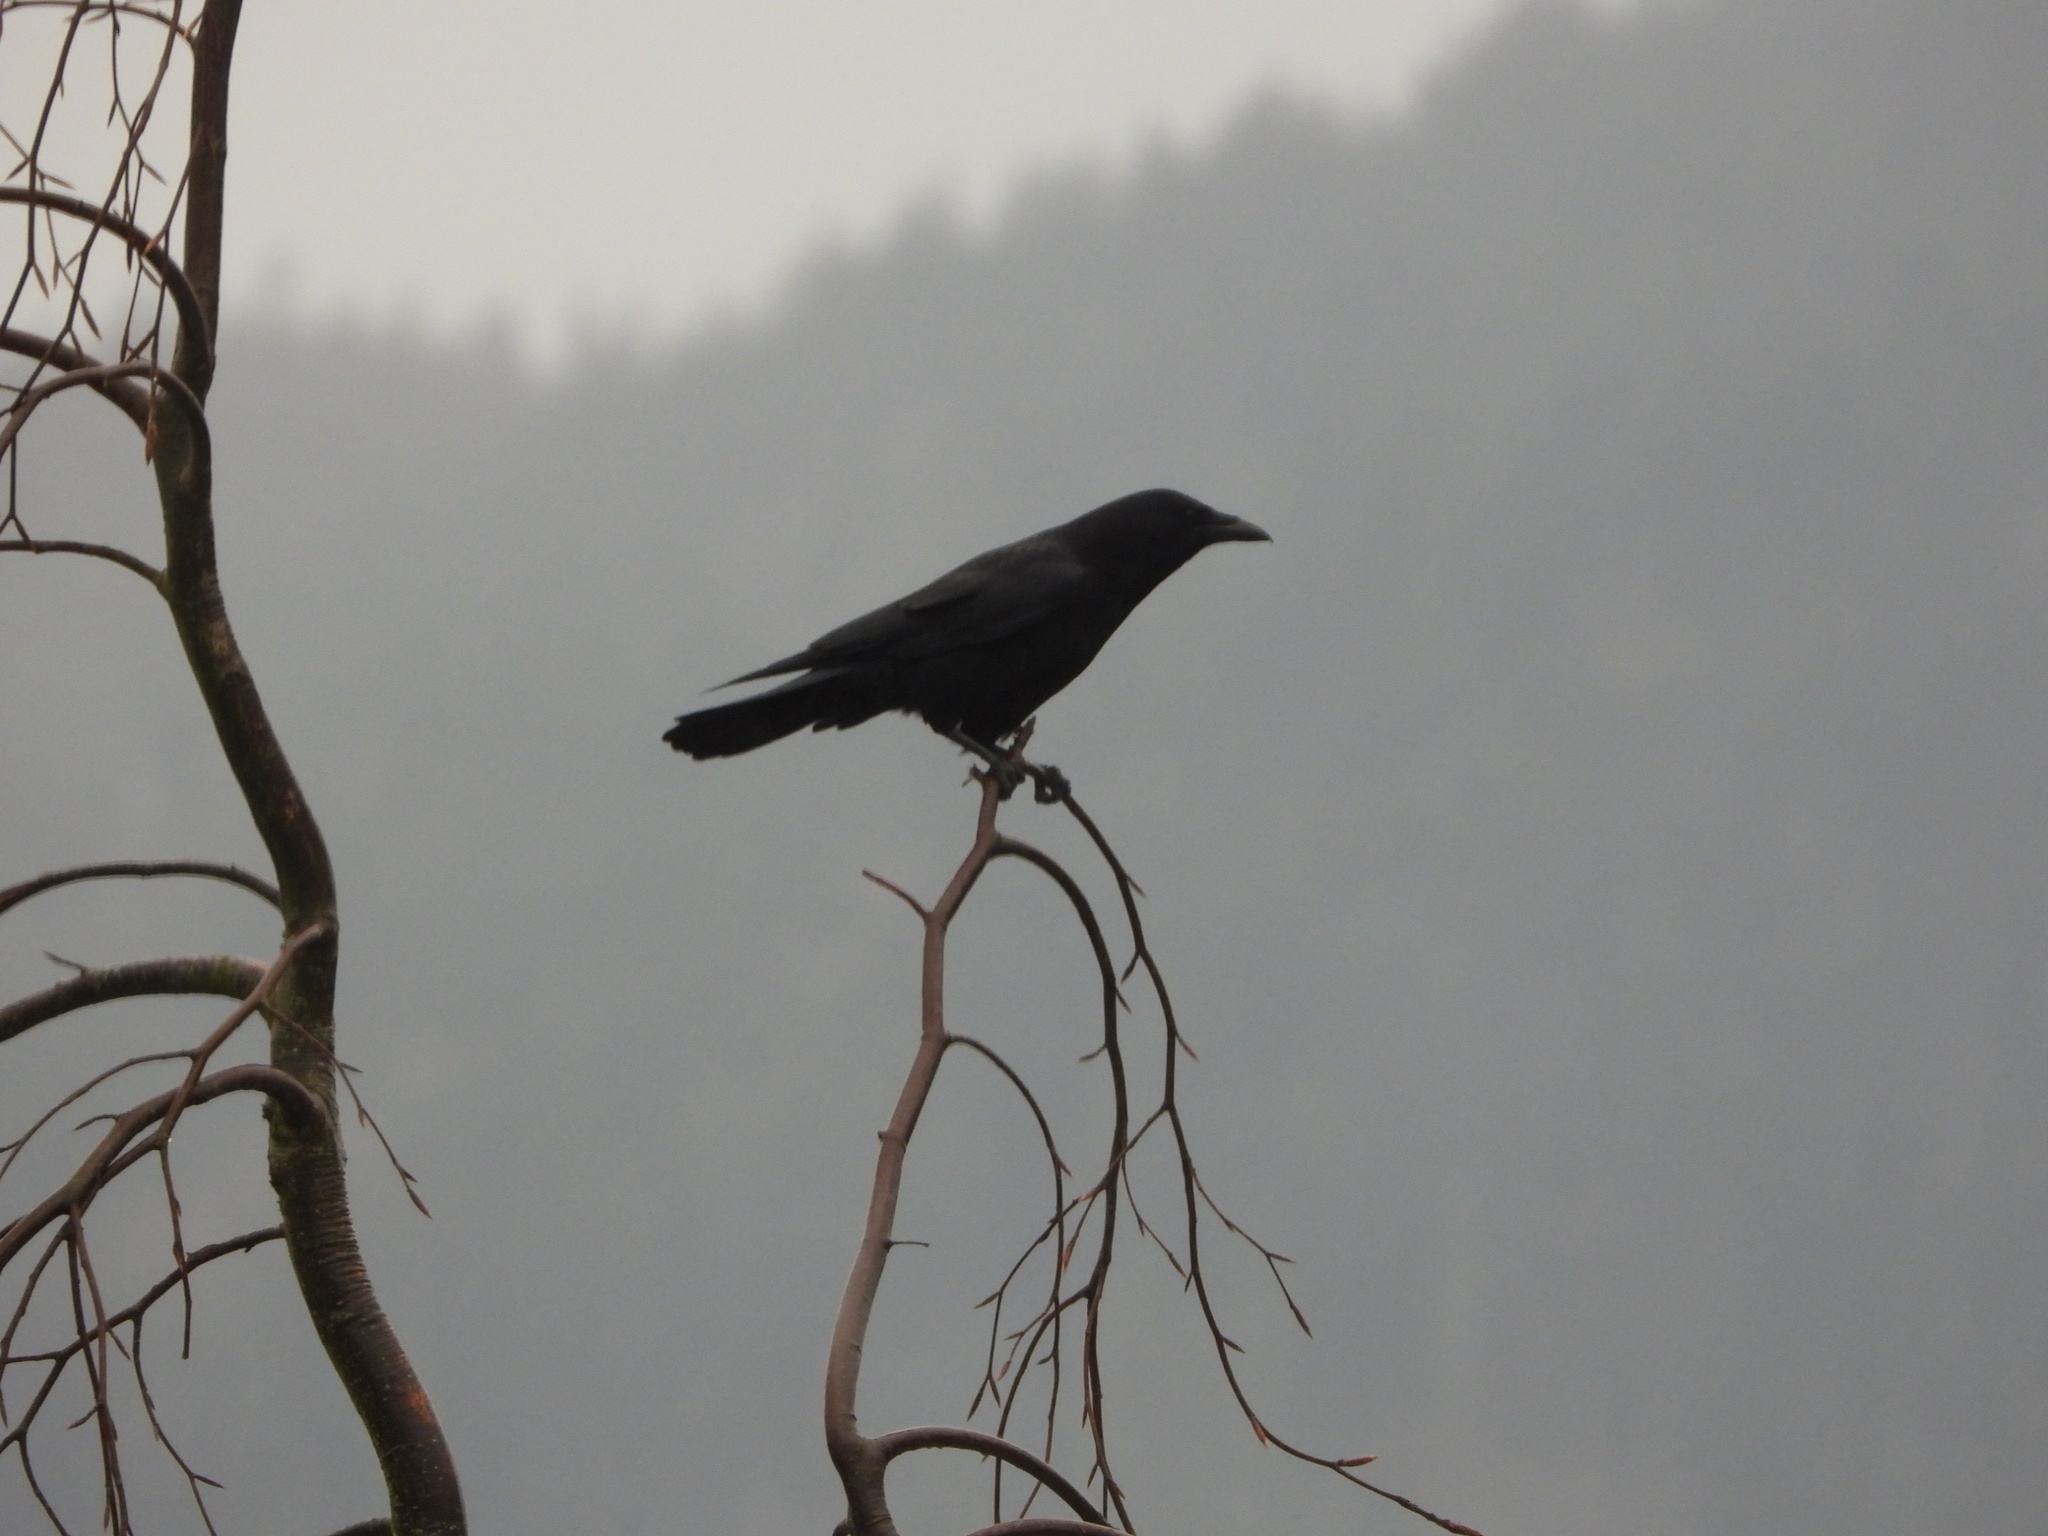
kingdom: Animalia
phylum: Chordata
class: Aves
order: Passeriformes
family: Corvidae
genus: Corvus
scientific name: Corvus brachyrhynchos
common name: American crow
